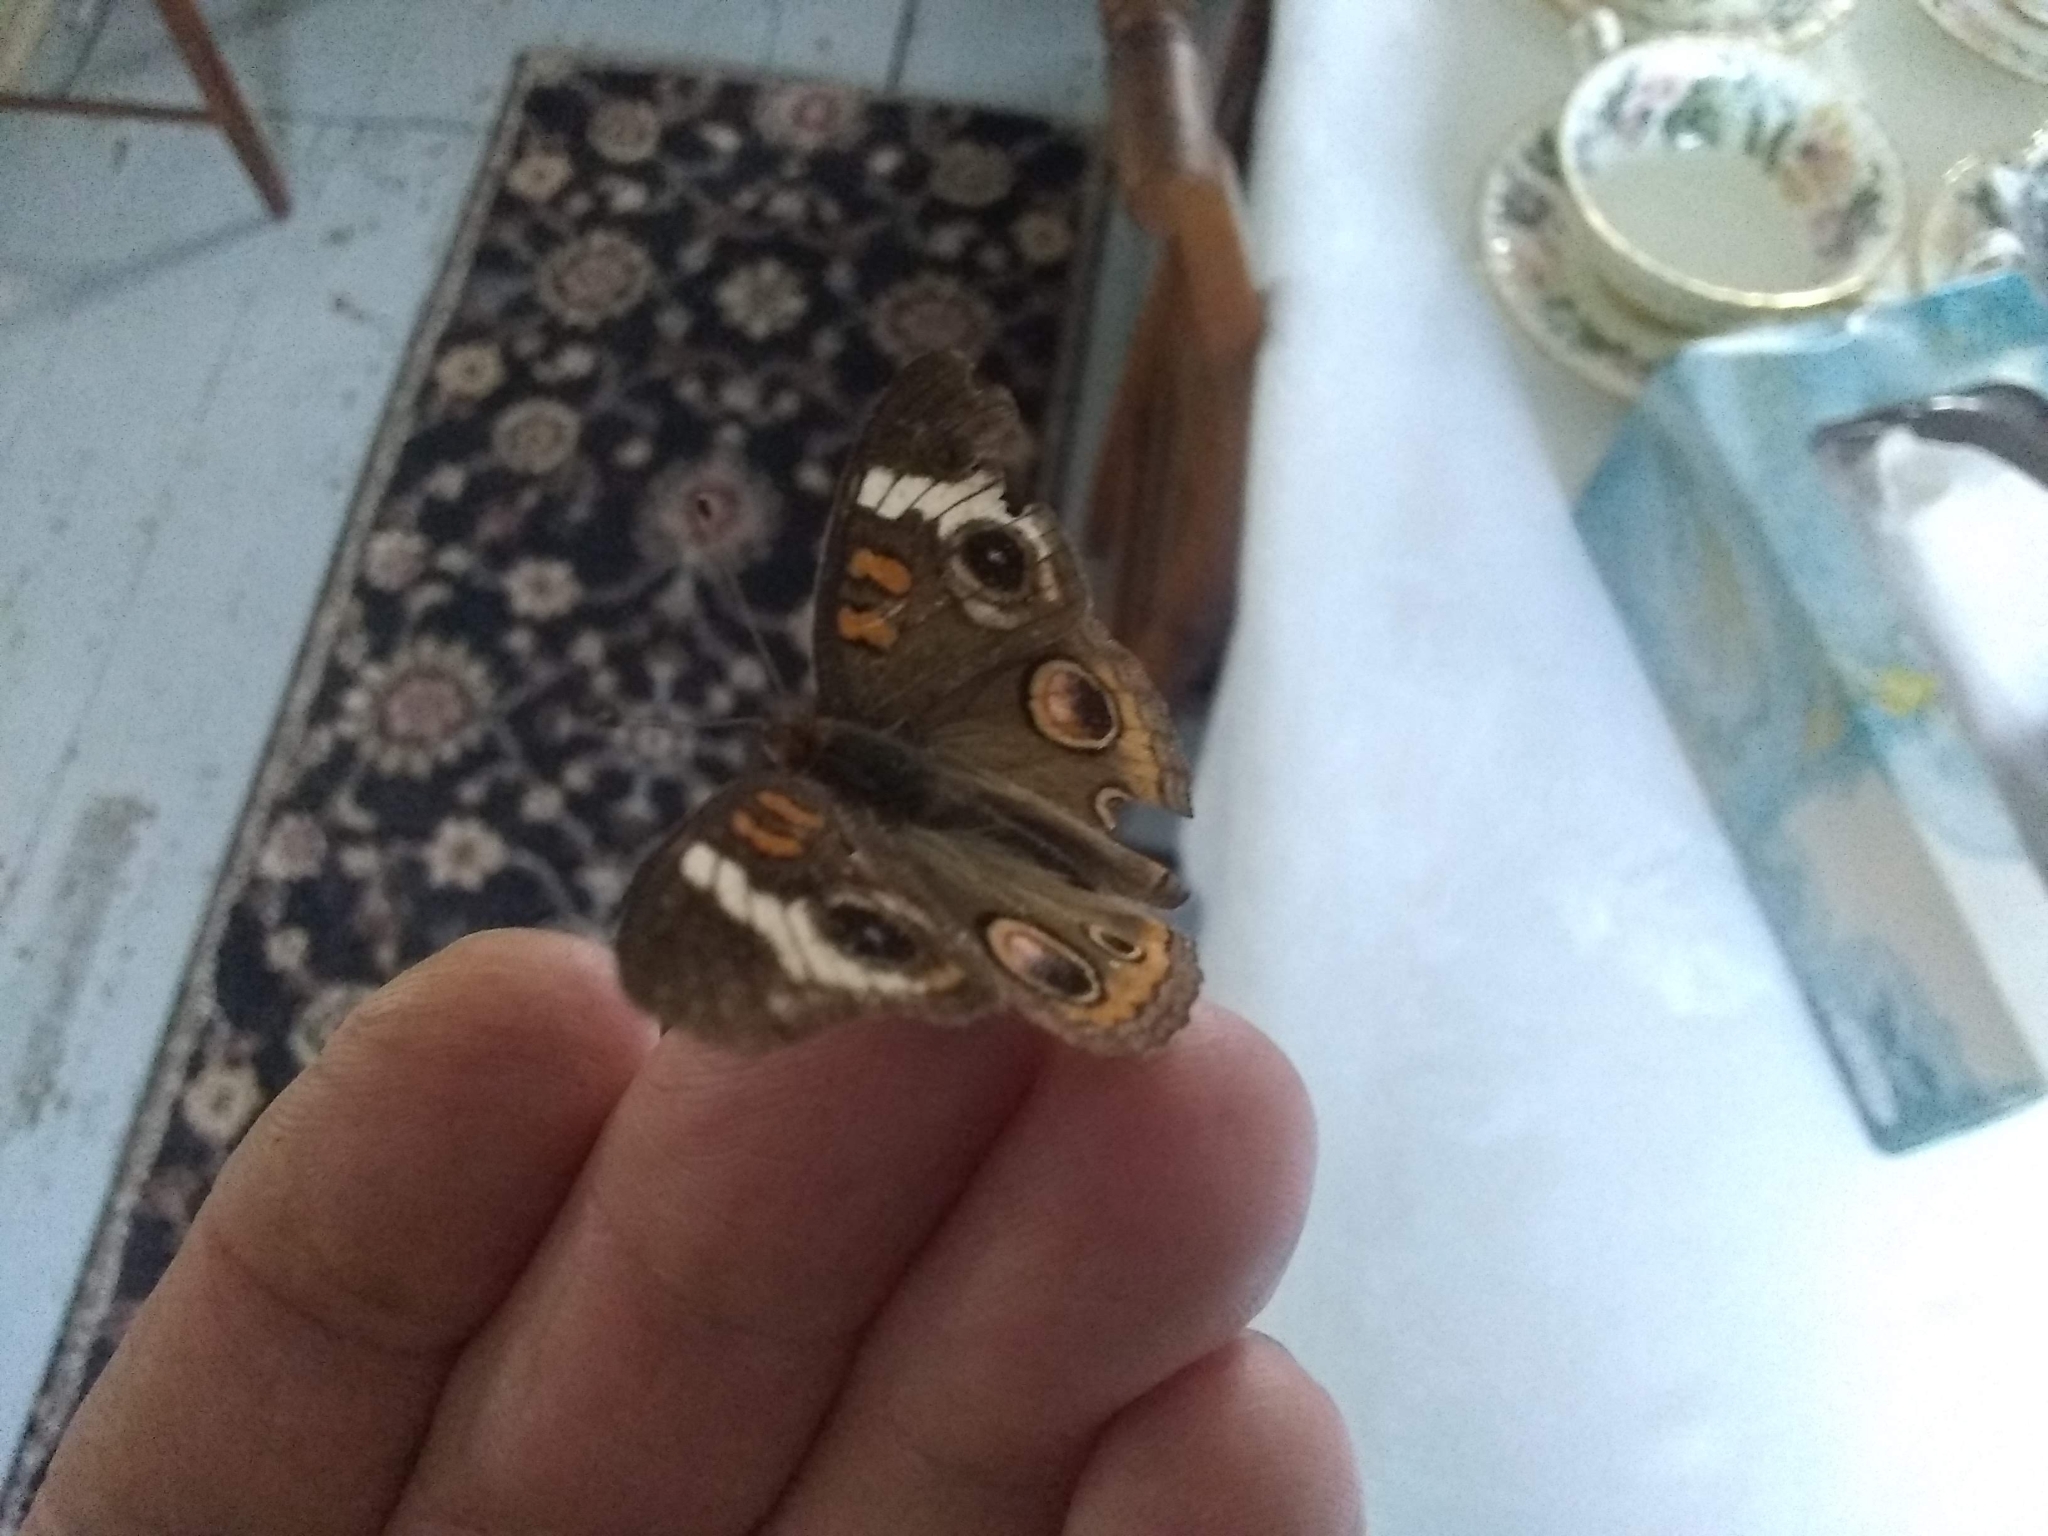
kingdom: Animalia
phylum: Arthropoda
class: Insecta
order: Lepidoptera
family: Nymphalidae
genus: Junonia
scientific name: Junonia coenia
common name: Common buckeye
